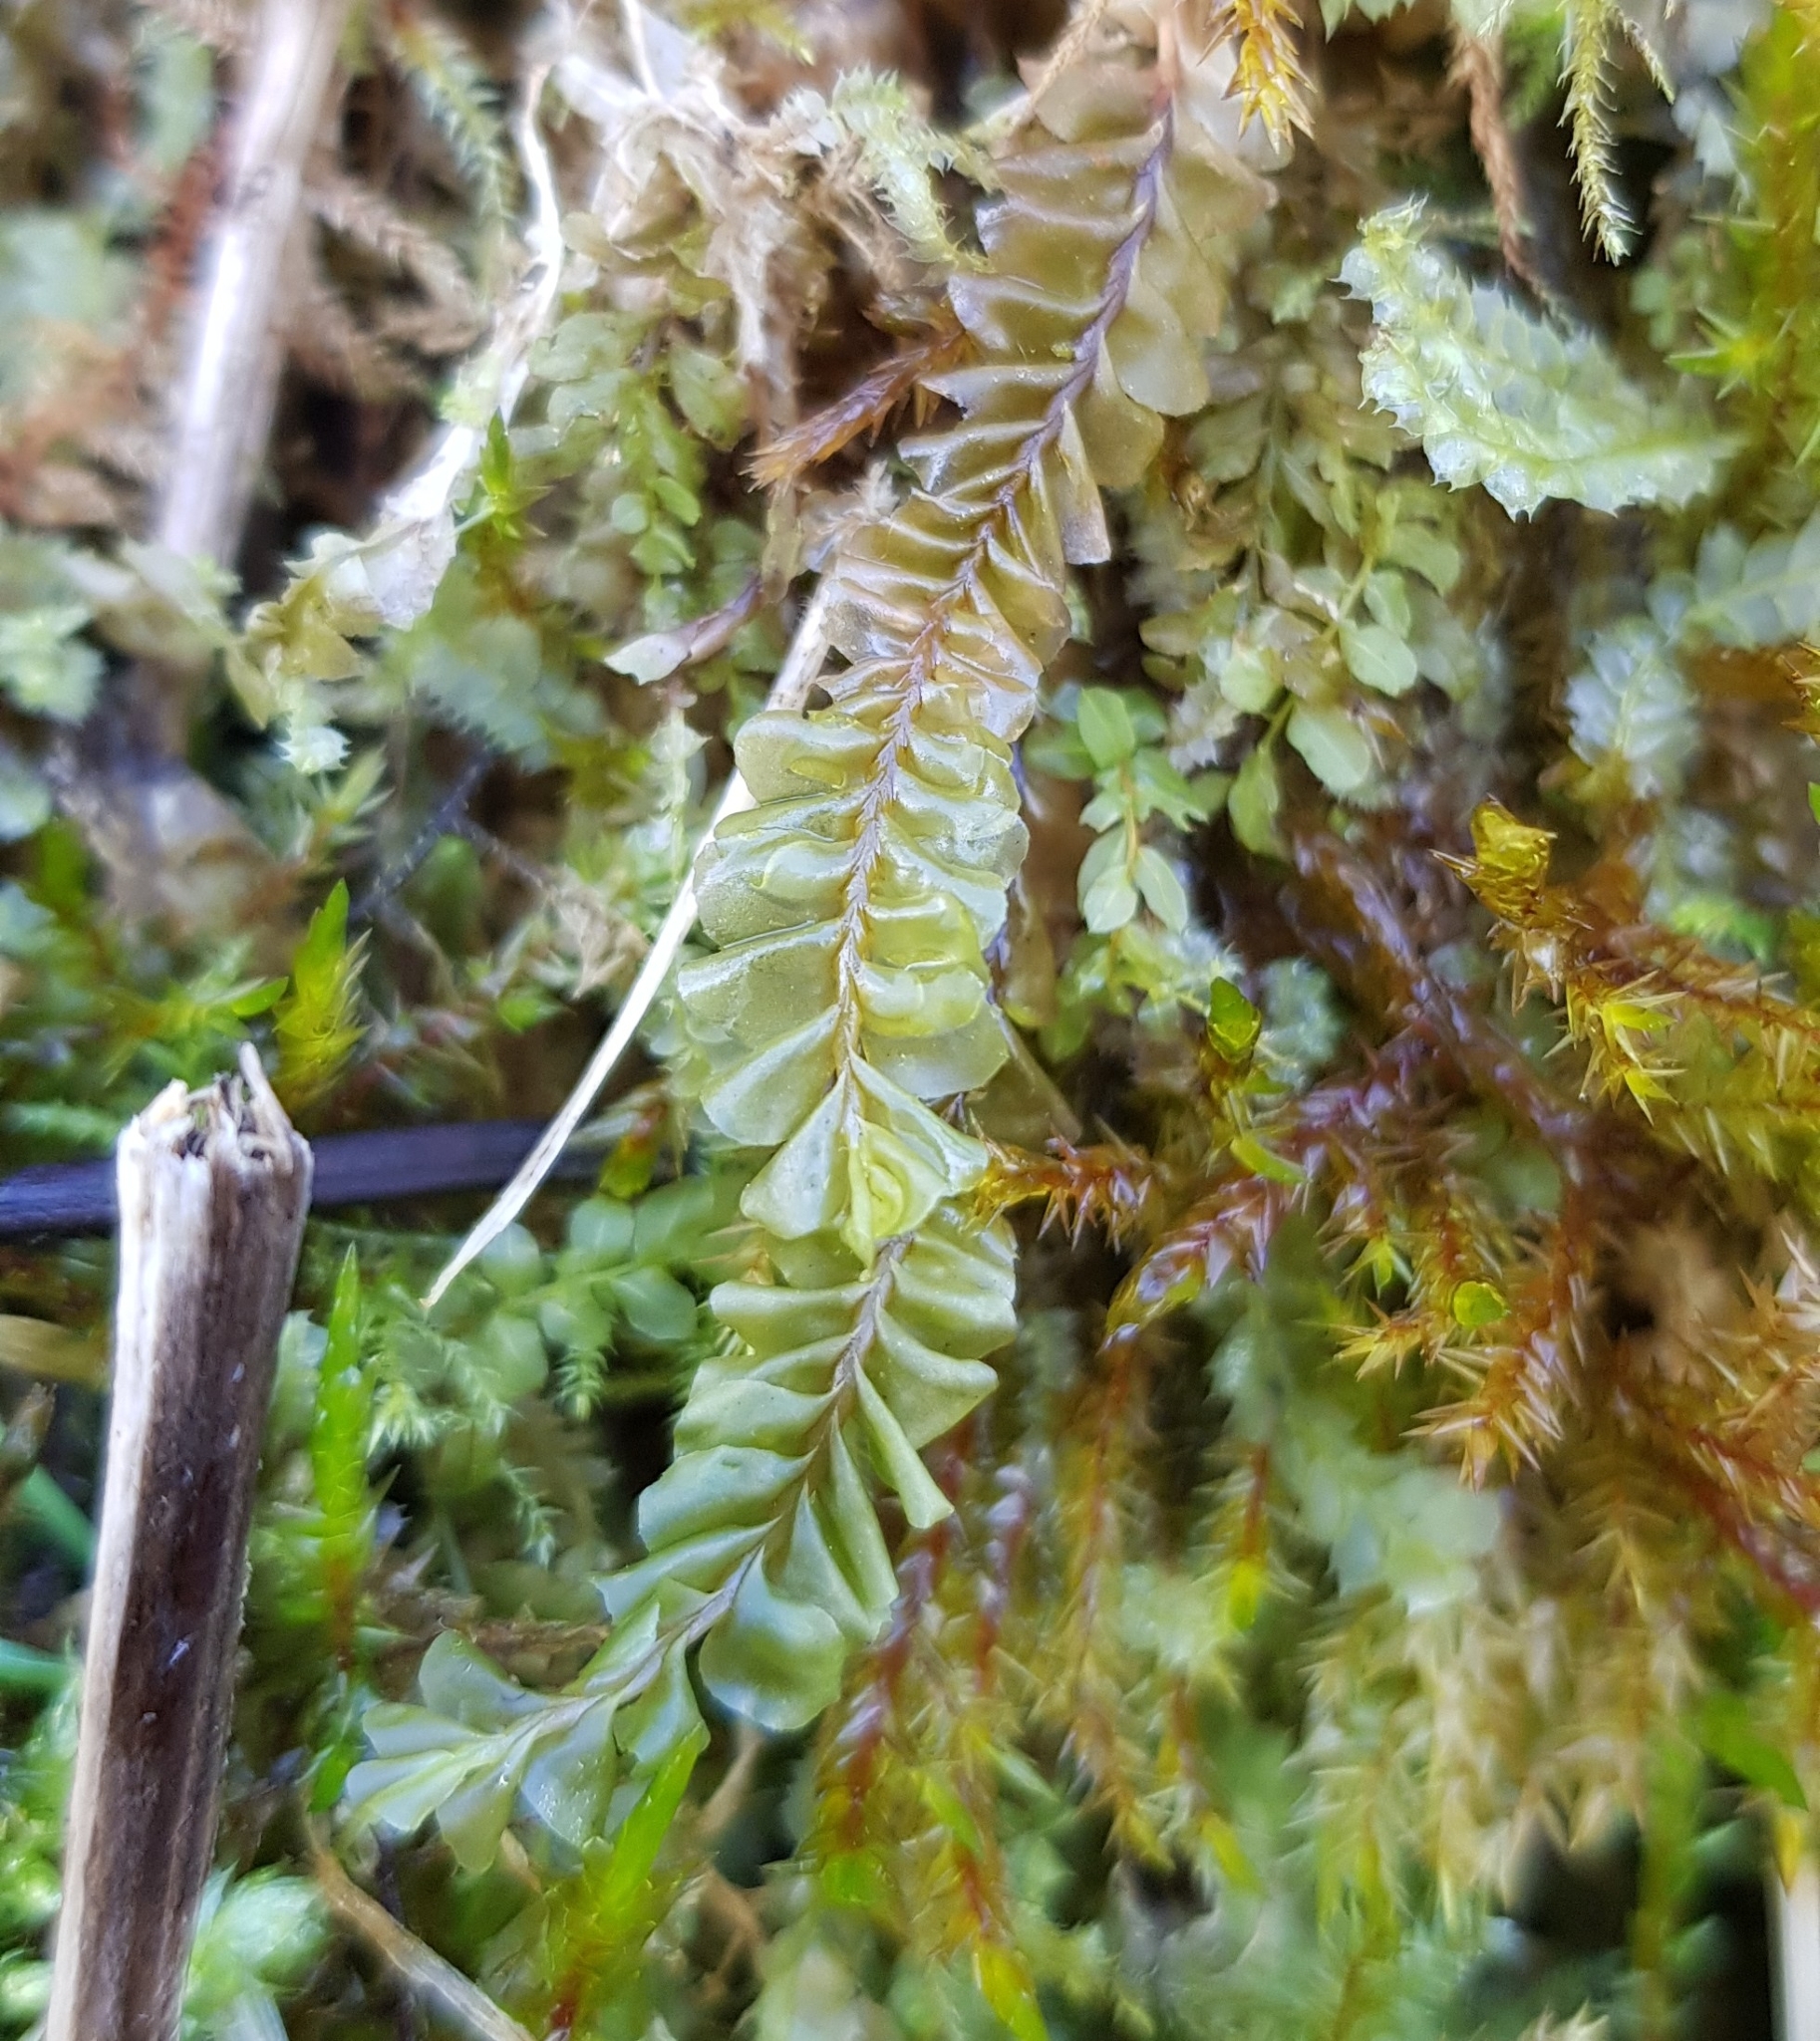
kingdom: Plantae
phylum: Marchantiophyta
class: Jungermanniopsida
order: Jungermanniales
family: Plagiochilaceae
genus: Plagiochila
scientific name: Plagiochila asplenioides
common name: Greater featherwort
